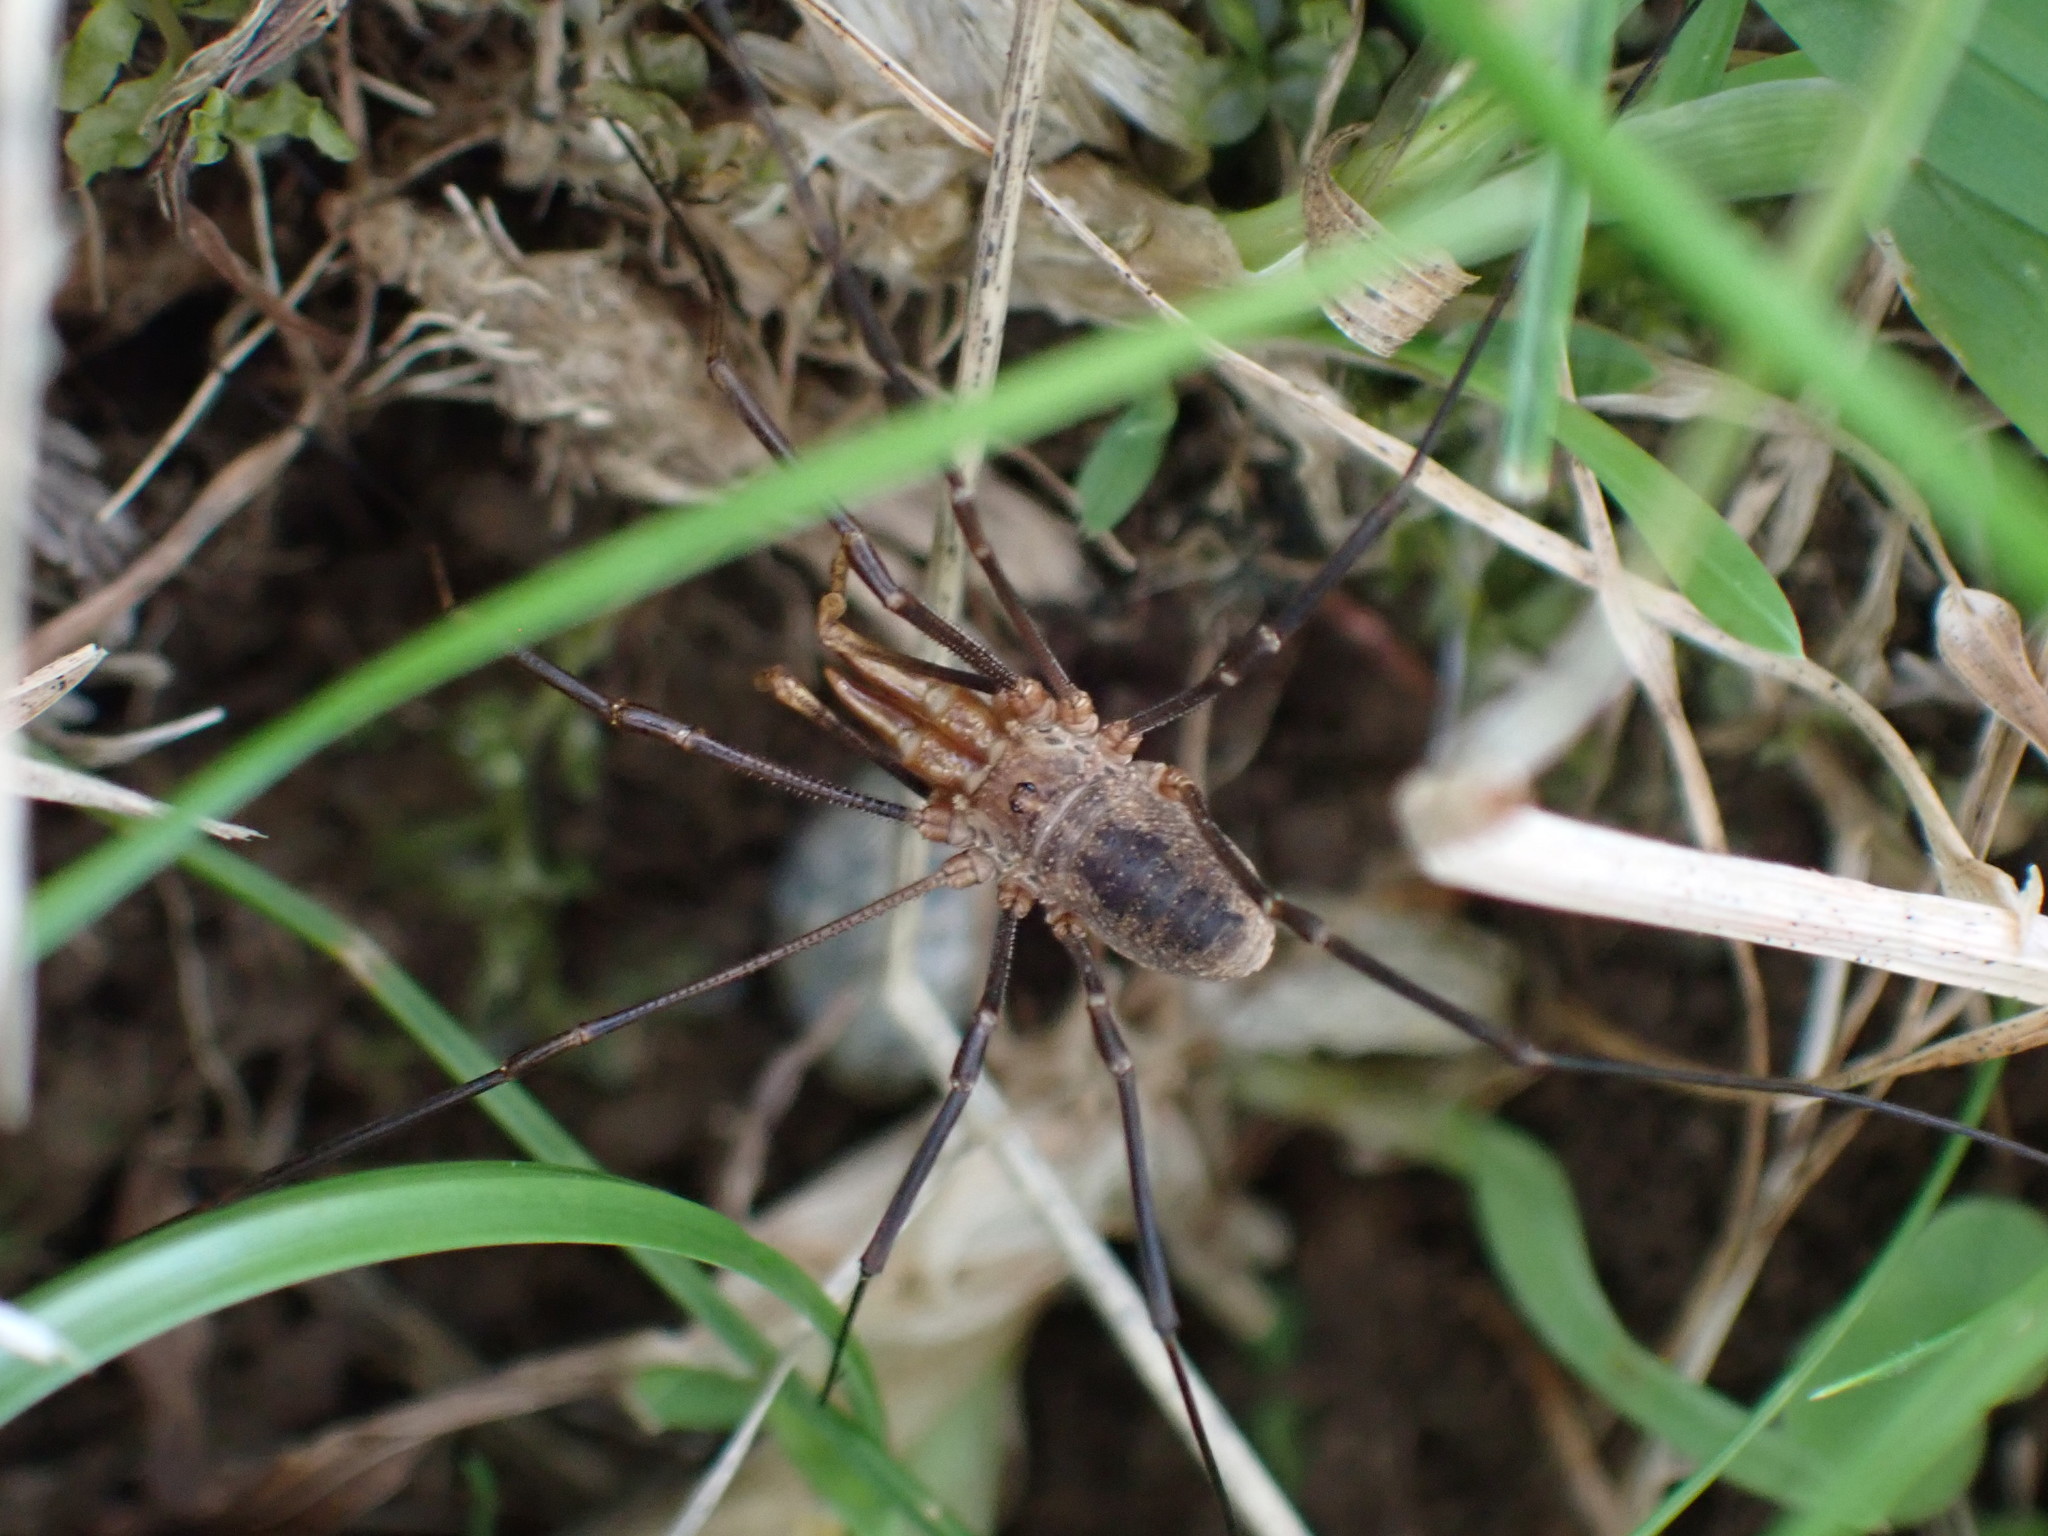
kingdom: Animalia
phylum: Arthropoda
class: Arachnida
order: Opiliones
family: Phalangiidae
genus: Phalangium
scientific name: Phalangium opilio
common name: Daddy longleg
